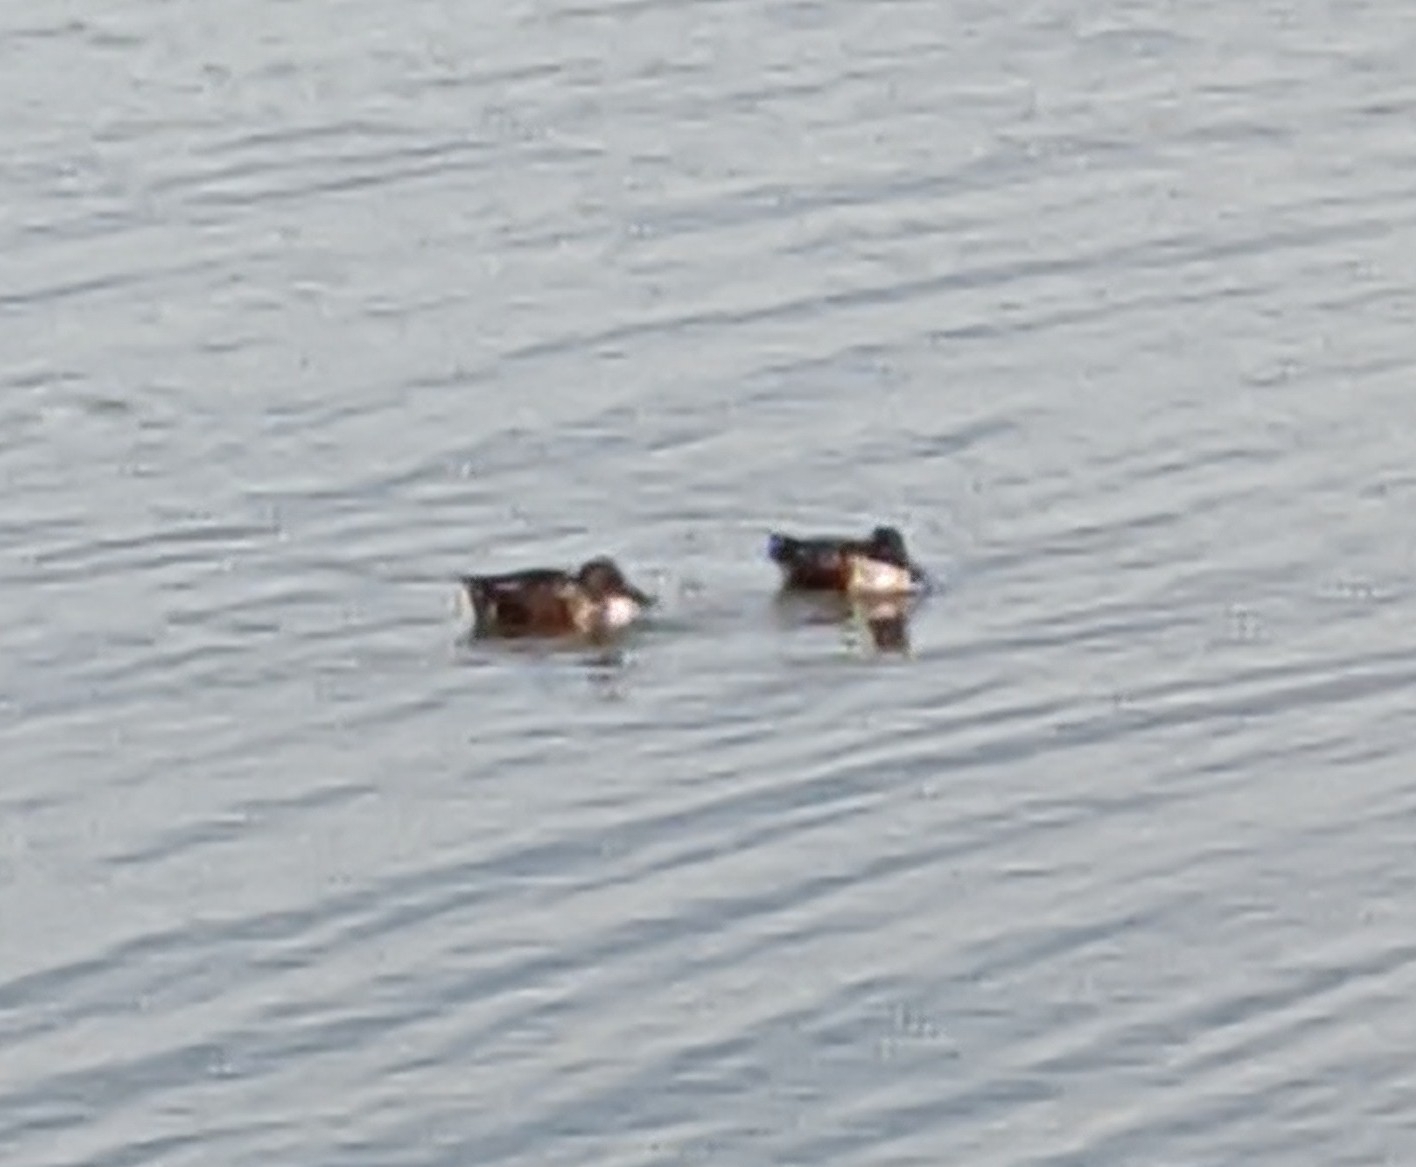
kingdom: Animalia
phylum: Chordata
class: Aves
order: Anseriformes
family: Anatidae
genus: Spatula
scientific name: Spatula clypeata
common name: Northern shoveler
